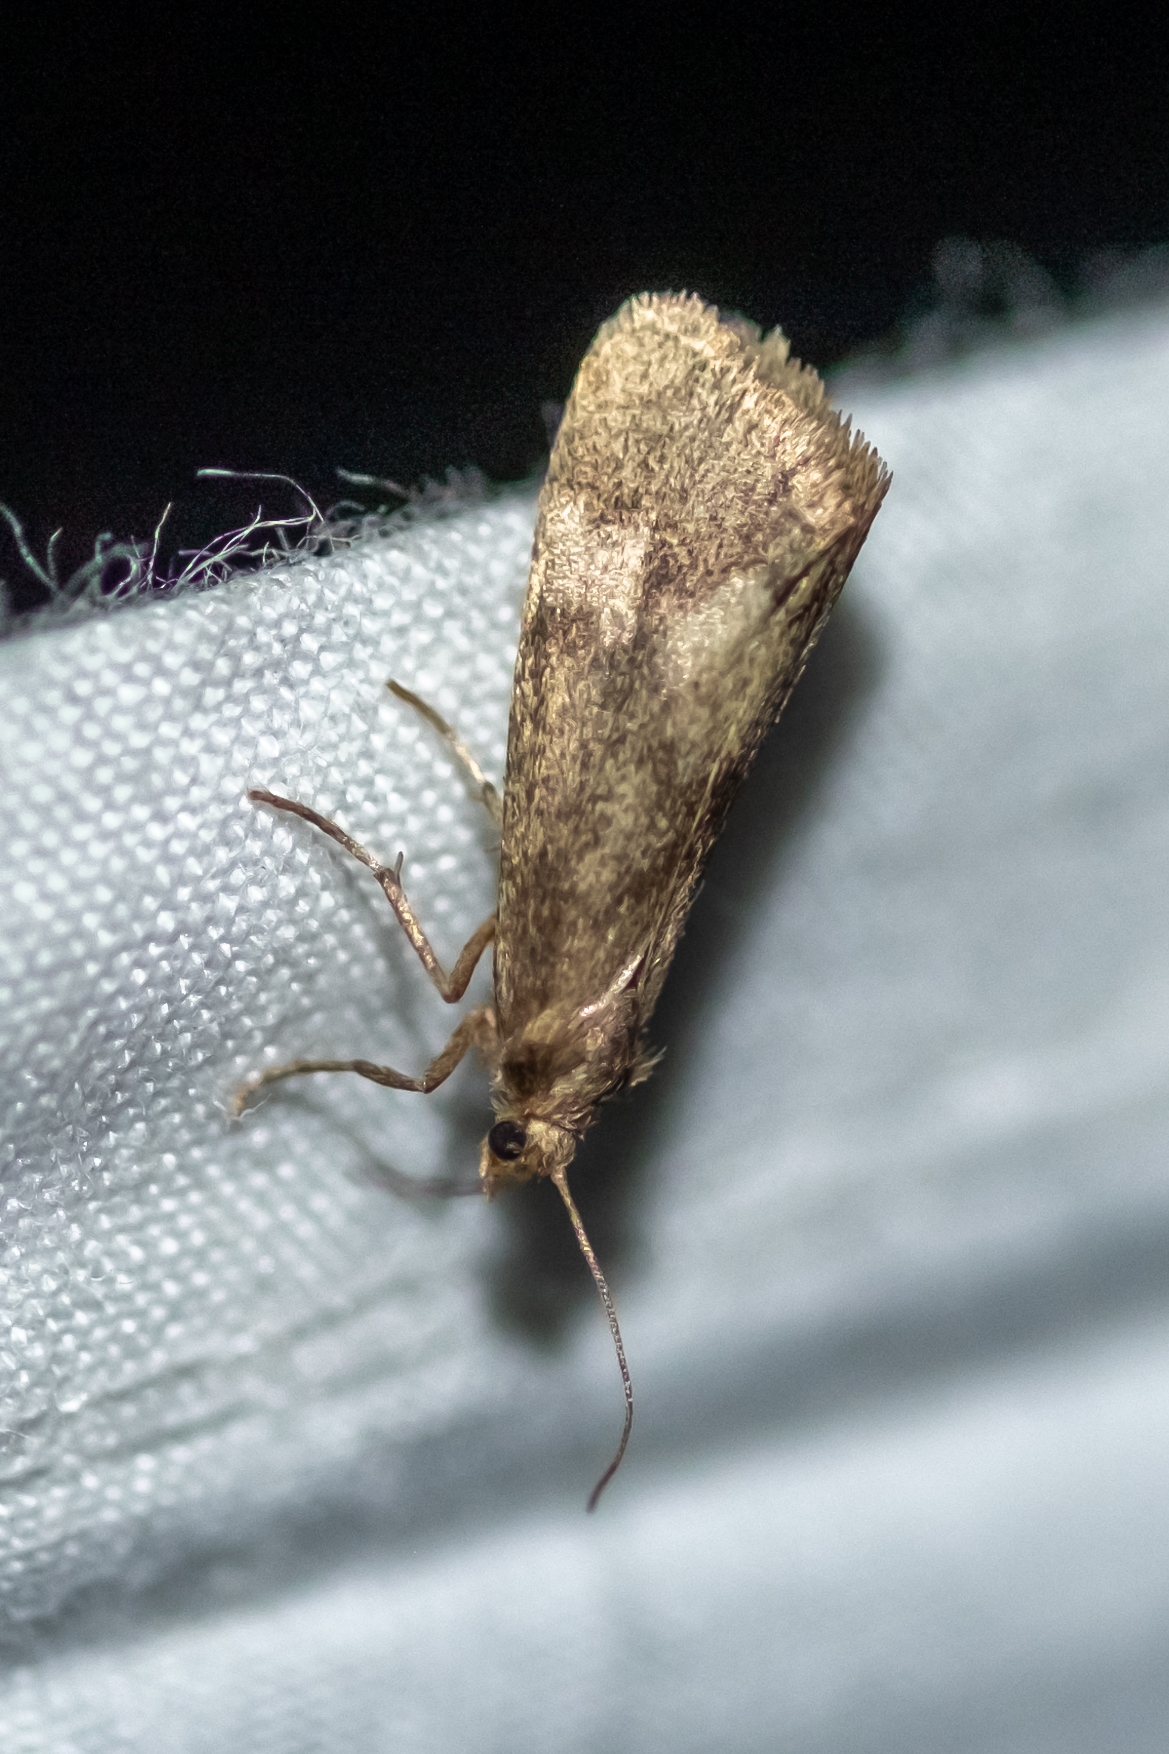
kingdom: Animalia
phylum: Arthropoda
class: Insecta
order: Lepidoptera
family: Erebidae
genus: Cisthene
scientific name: Cisthene faustinula
